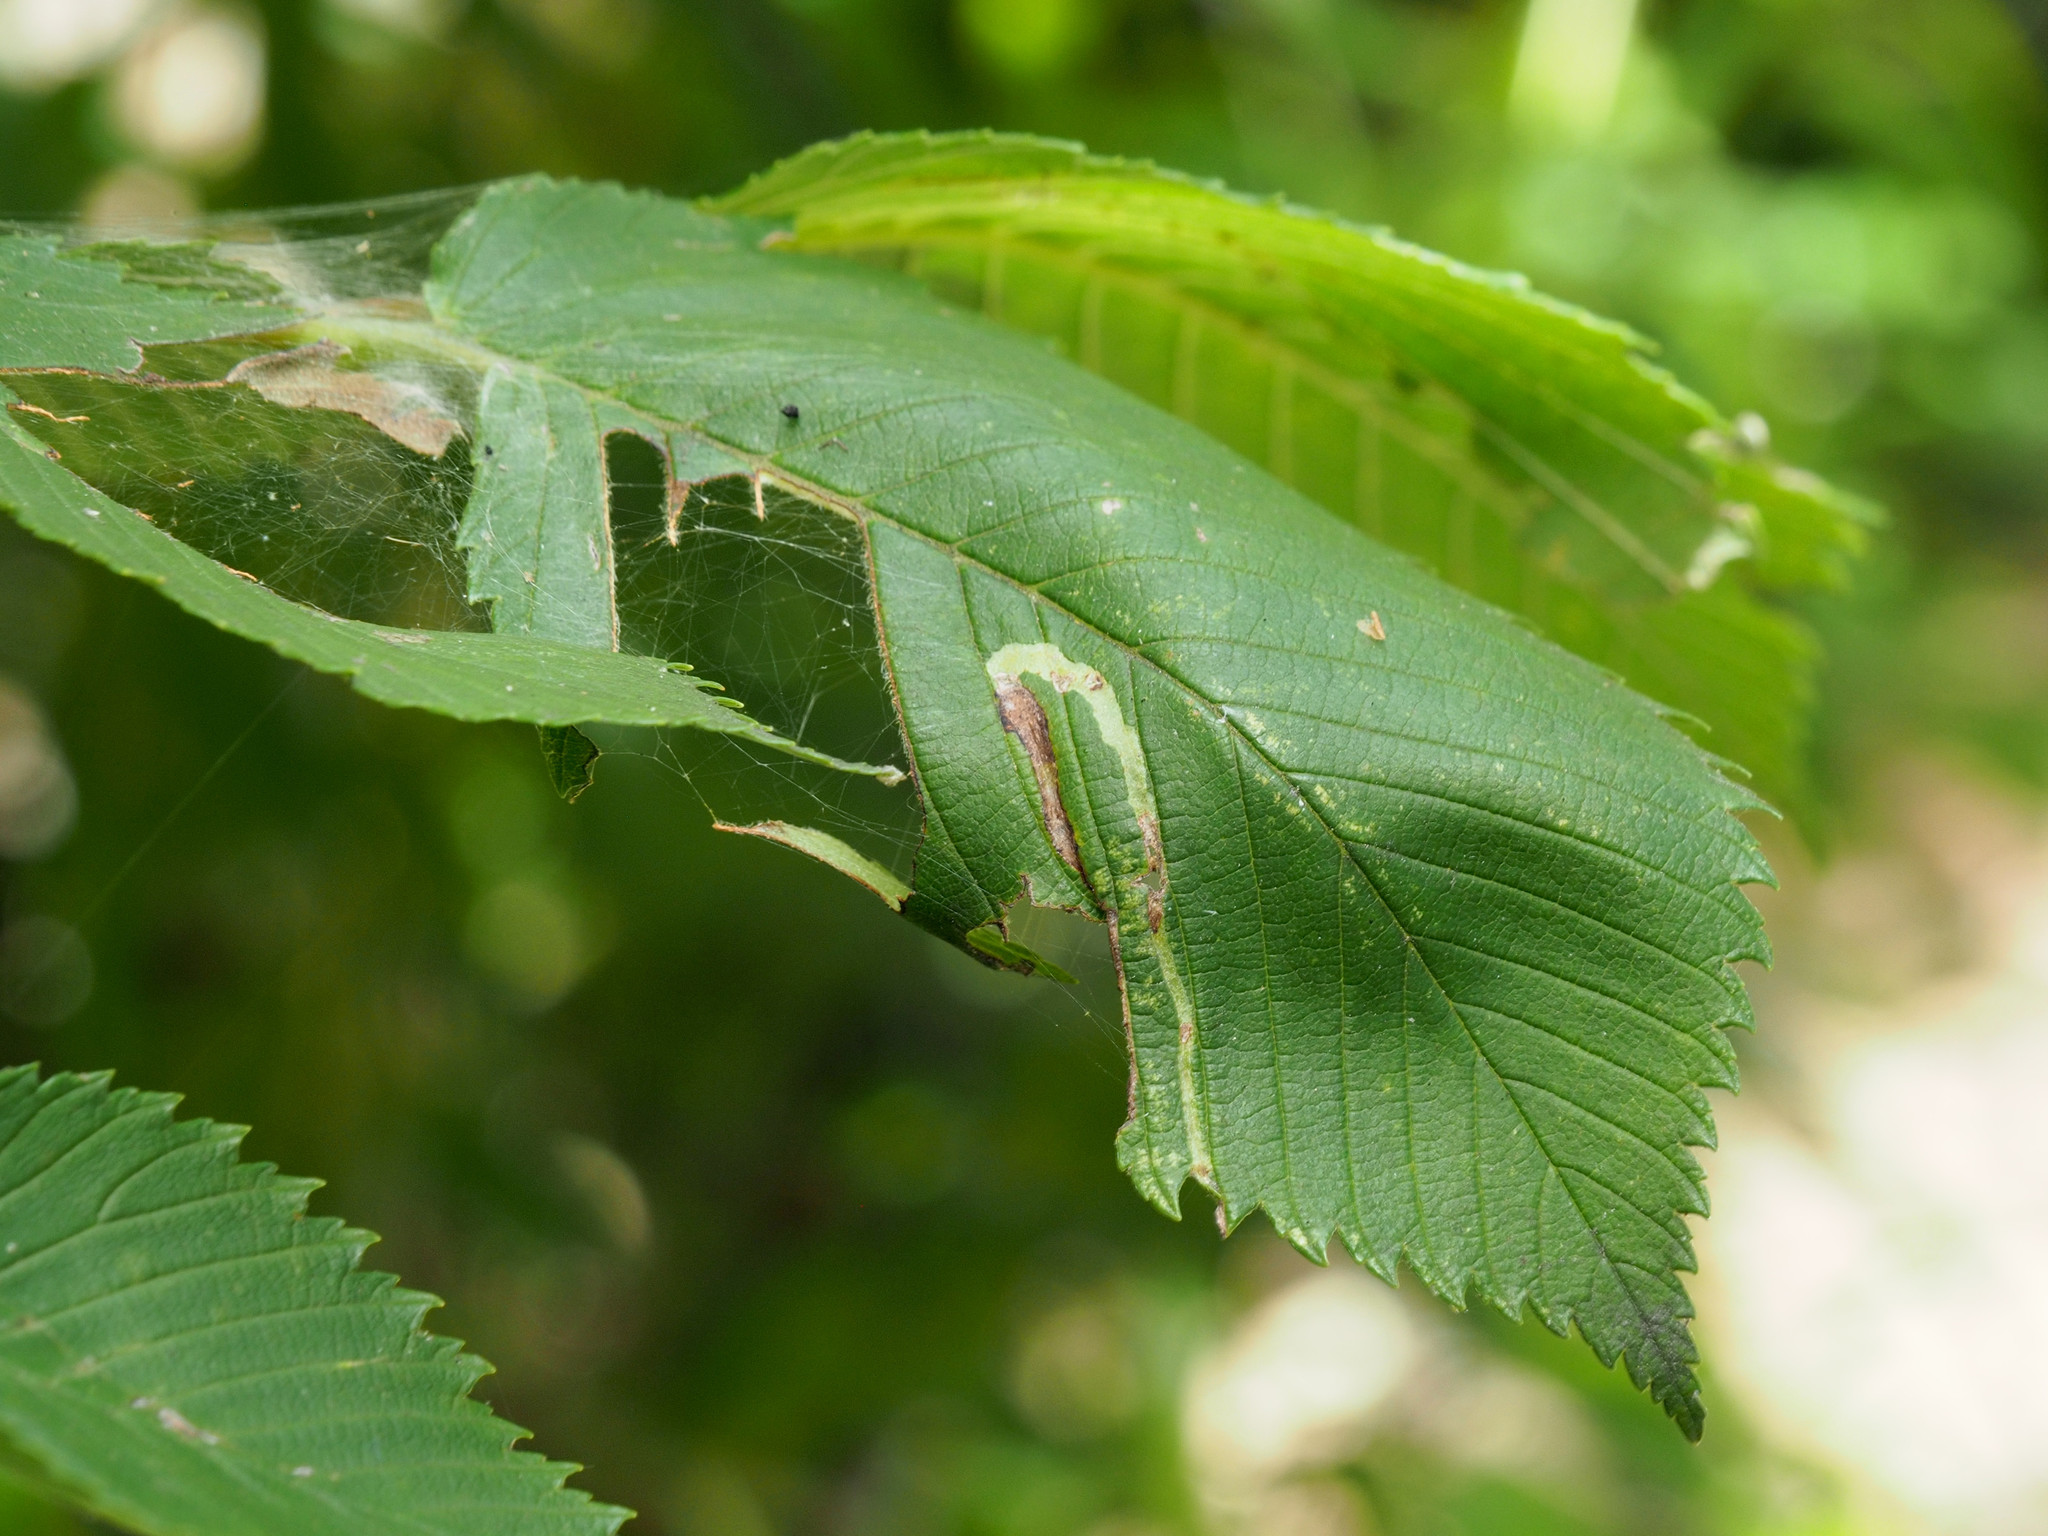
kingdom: Animalia
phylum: Arthropoda
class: Insecta
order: Diptera
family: Agromyzidae
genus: Agromyza
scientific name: Agromyza aristata
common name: Elm agromyzid leafminer
